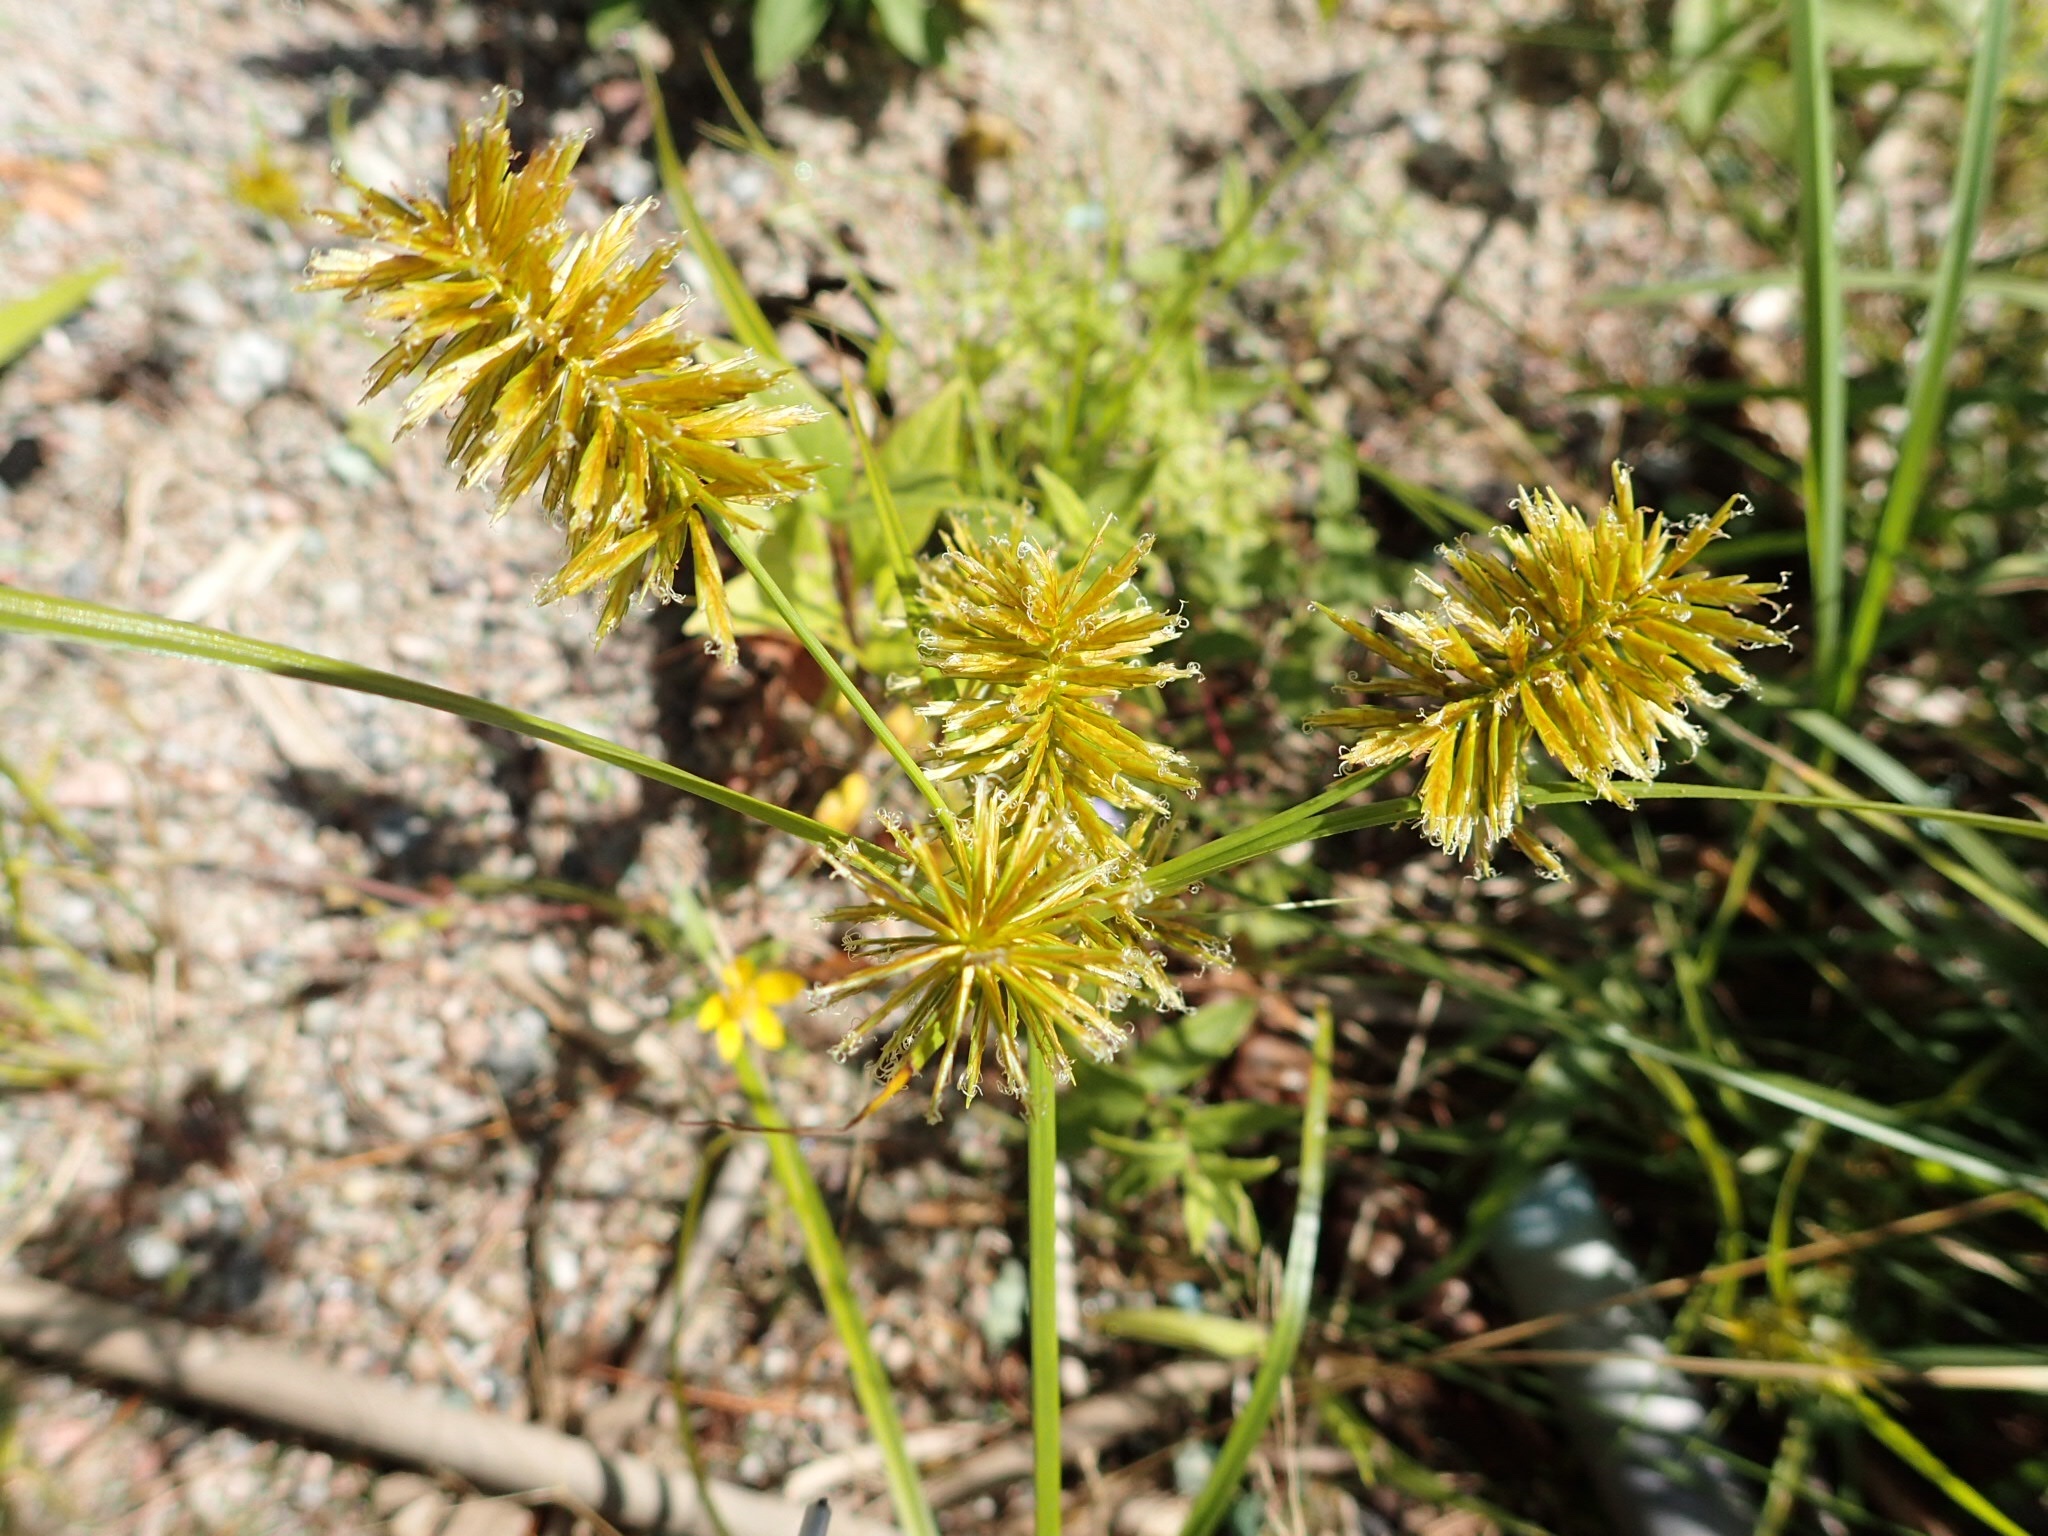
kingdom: Plantae
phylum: Tracheophyta
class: Liliopsida
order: Poales
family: Cyperaceae
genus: Cyperus
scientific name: Cyperus strigosus
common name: False nutsedge
